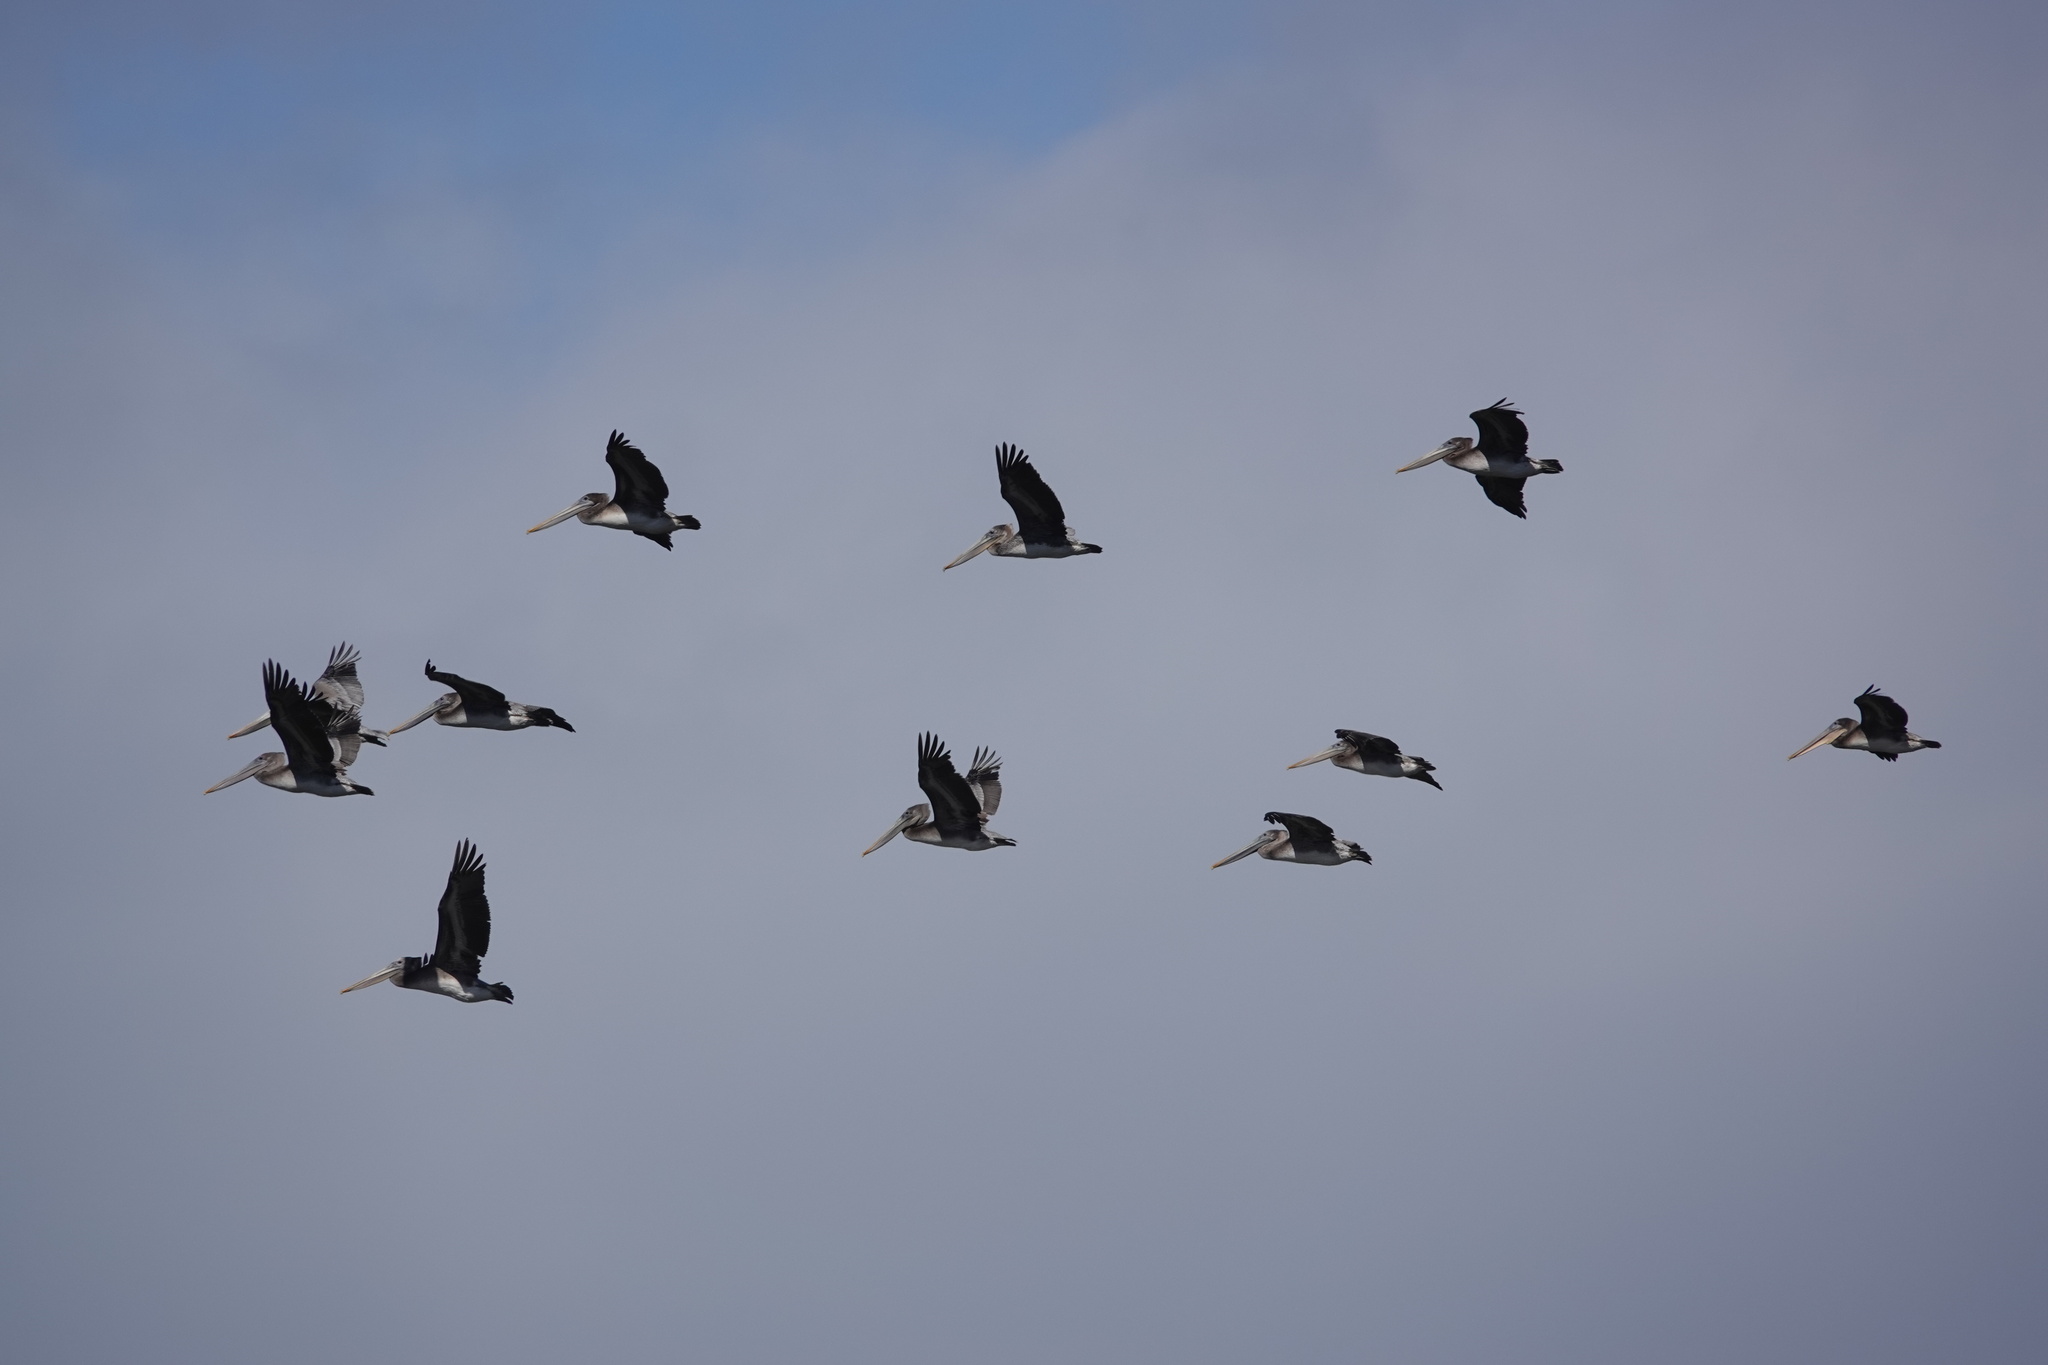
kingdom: Animalia
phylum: Chordata
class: Aves
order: Pelecaniformes
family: Pelecanidae
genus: Pelecanus
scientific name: Pelecanus occidentalis
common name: Brown pelican
